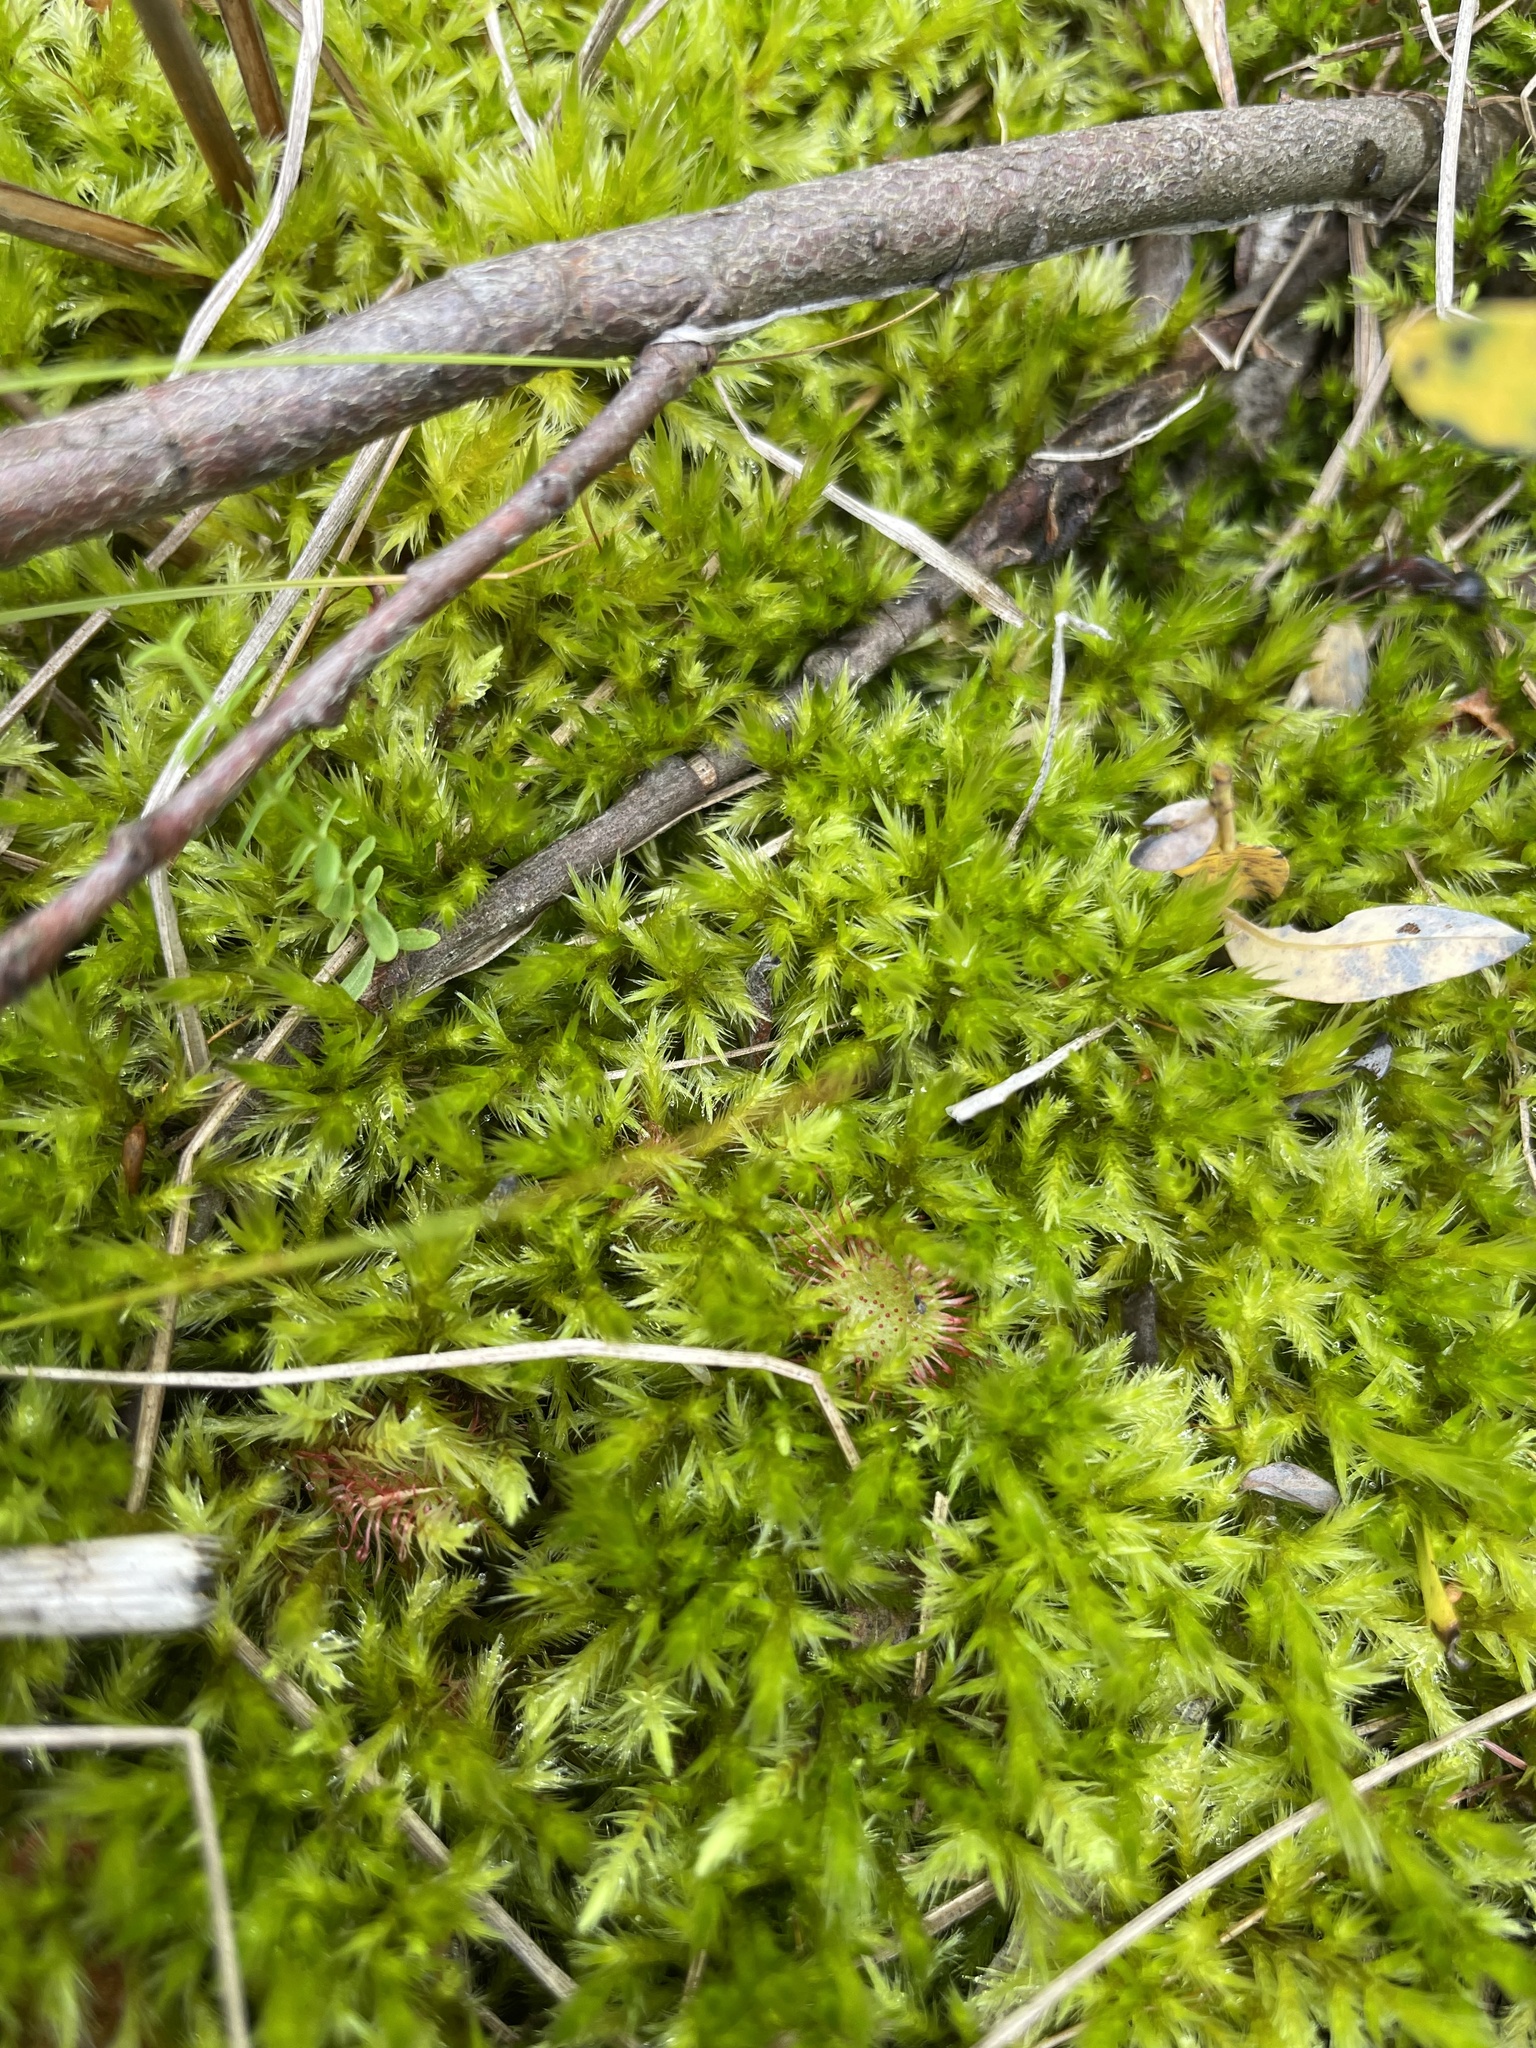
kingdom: Plantae
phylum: Tracheophyta
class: Magnoliopsida
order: Caryophyllales
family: Droseraceae
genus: Drosera
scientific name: Drosera rotundifolia
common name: Round-leaved sundew
